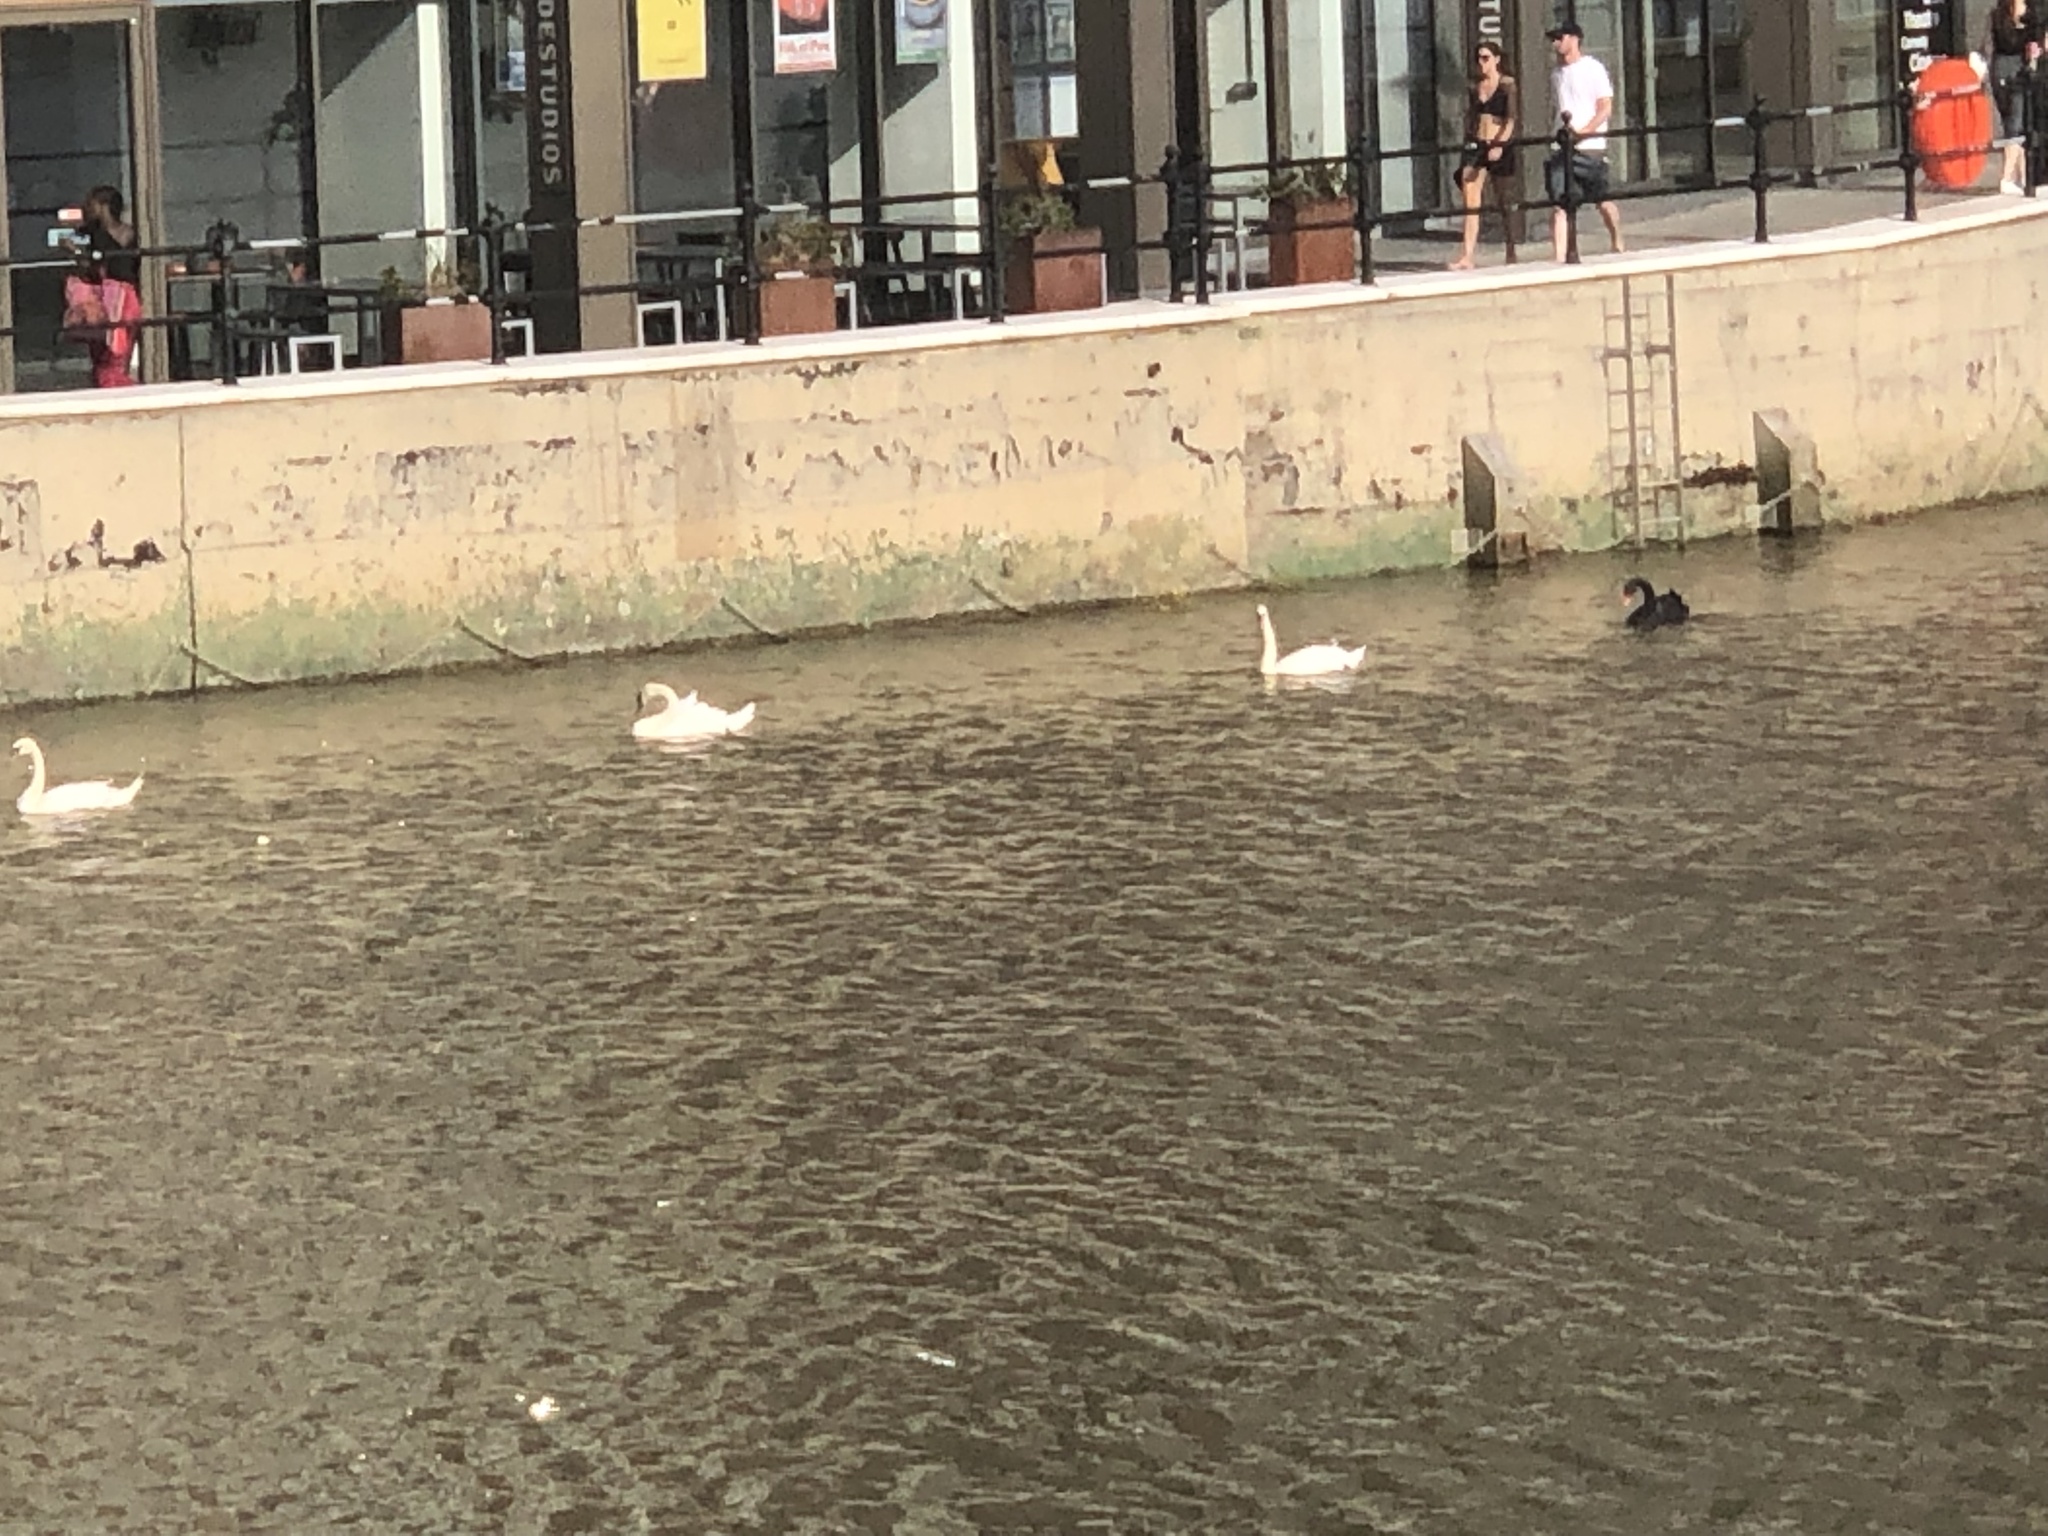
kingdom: Animalia
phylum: Chordata
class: Aves
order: Anseriformes
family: Anatidae
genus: Cygnus
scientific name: Cygnus atratus
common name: Black swan
